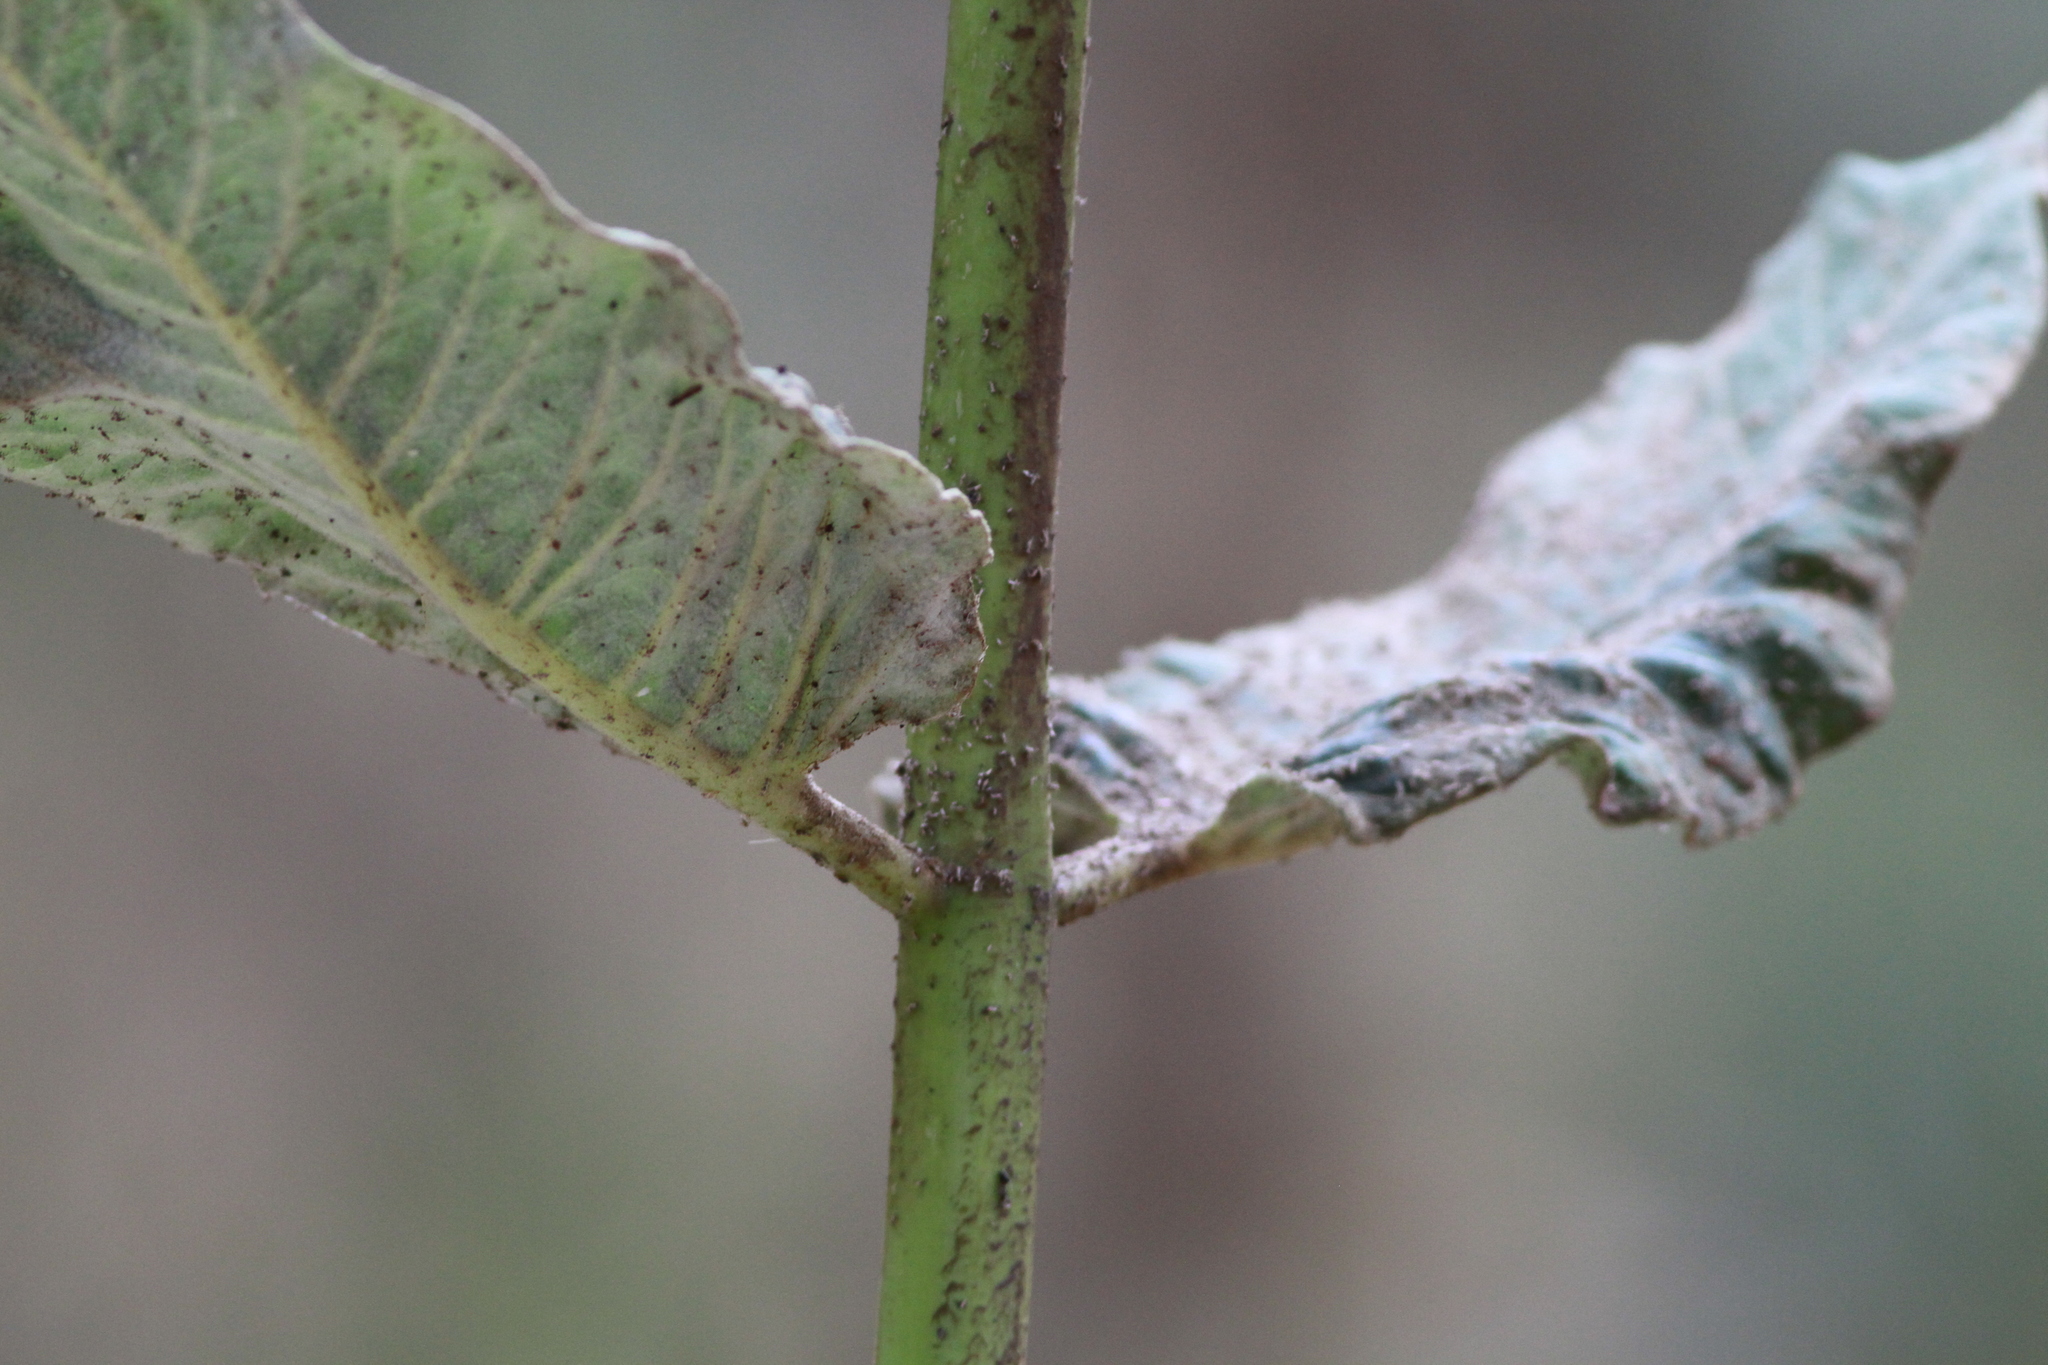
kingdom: Plantae
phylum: Tracheophyta
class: Magnoliopsida
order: Gentianales
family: Apocynaceae
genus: Asclepias
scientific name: Asclepias scheryi
